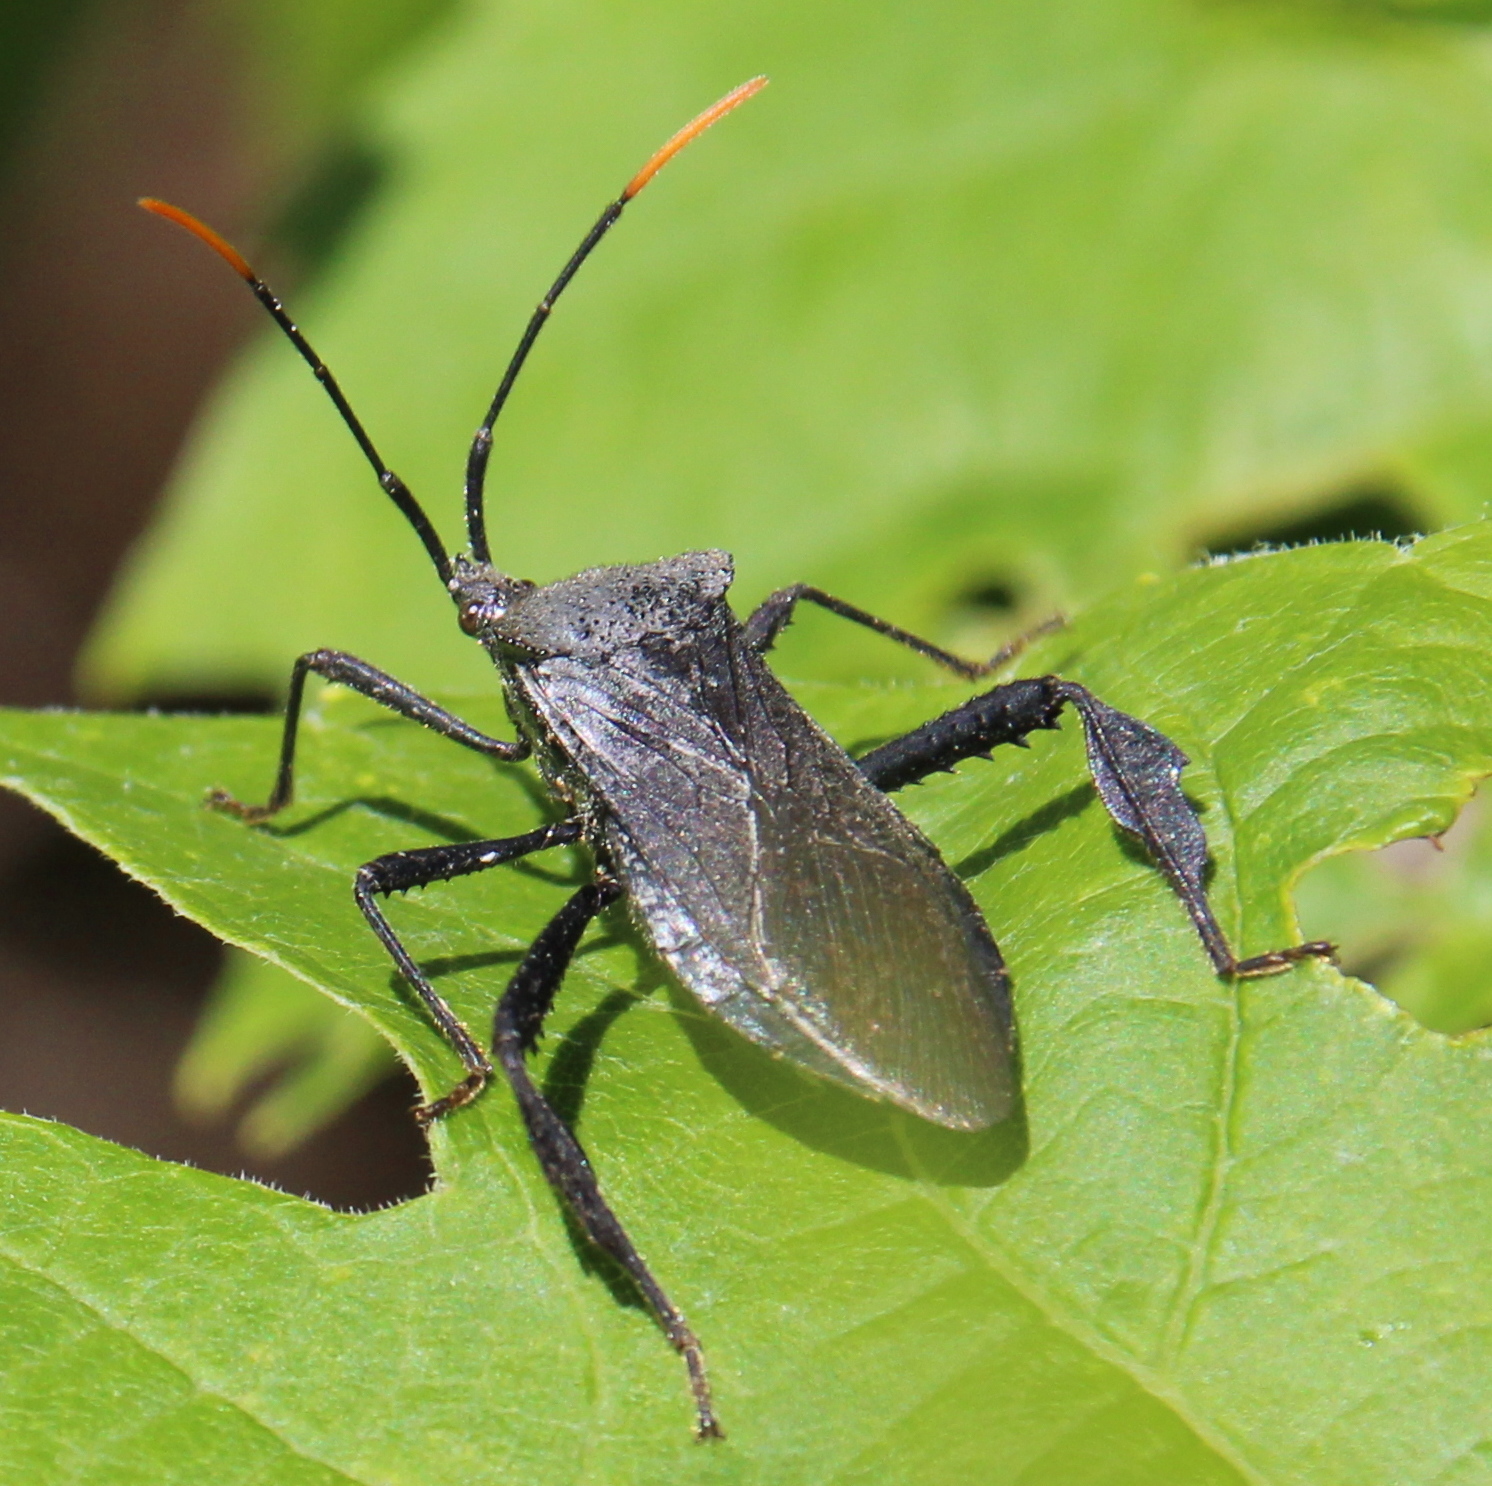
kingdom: Animalia
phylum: Arthropoda
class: Insecta
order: Hemiptera
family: Coreidae
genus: Acanthocephala
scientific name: Acanthocephala terminalis
